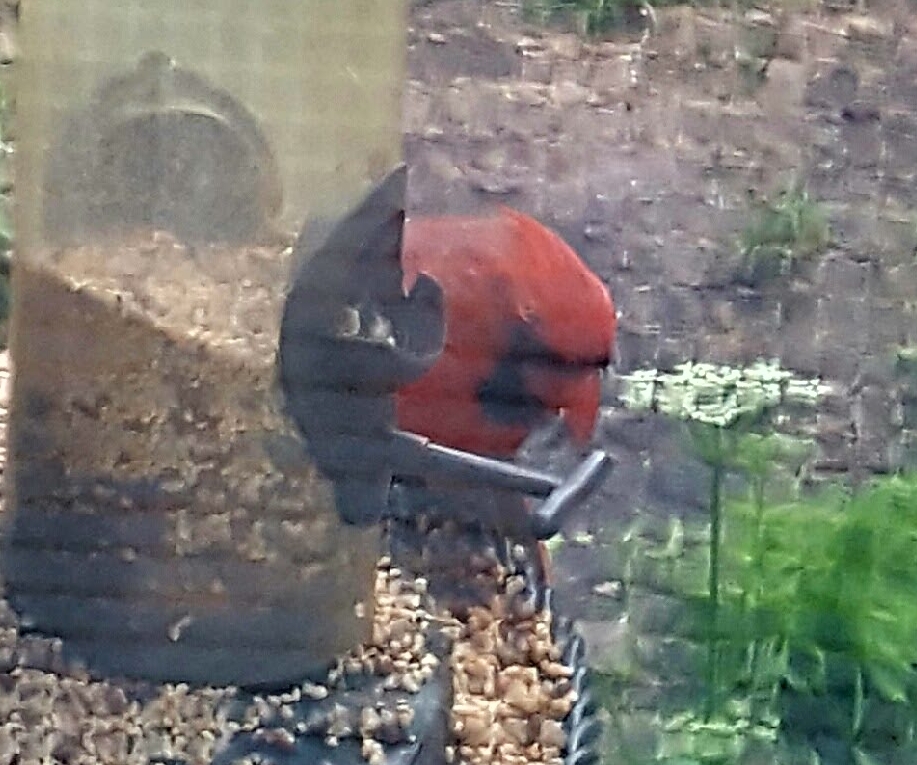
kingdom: Animalia
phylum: Chordata
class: Aves
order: Passeriformes
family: Cardinalidae
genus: Cardinalis
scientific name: Cardinalis cardinalis
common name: Northern cardinal
